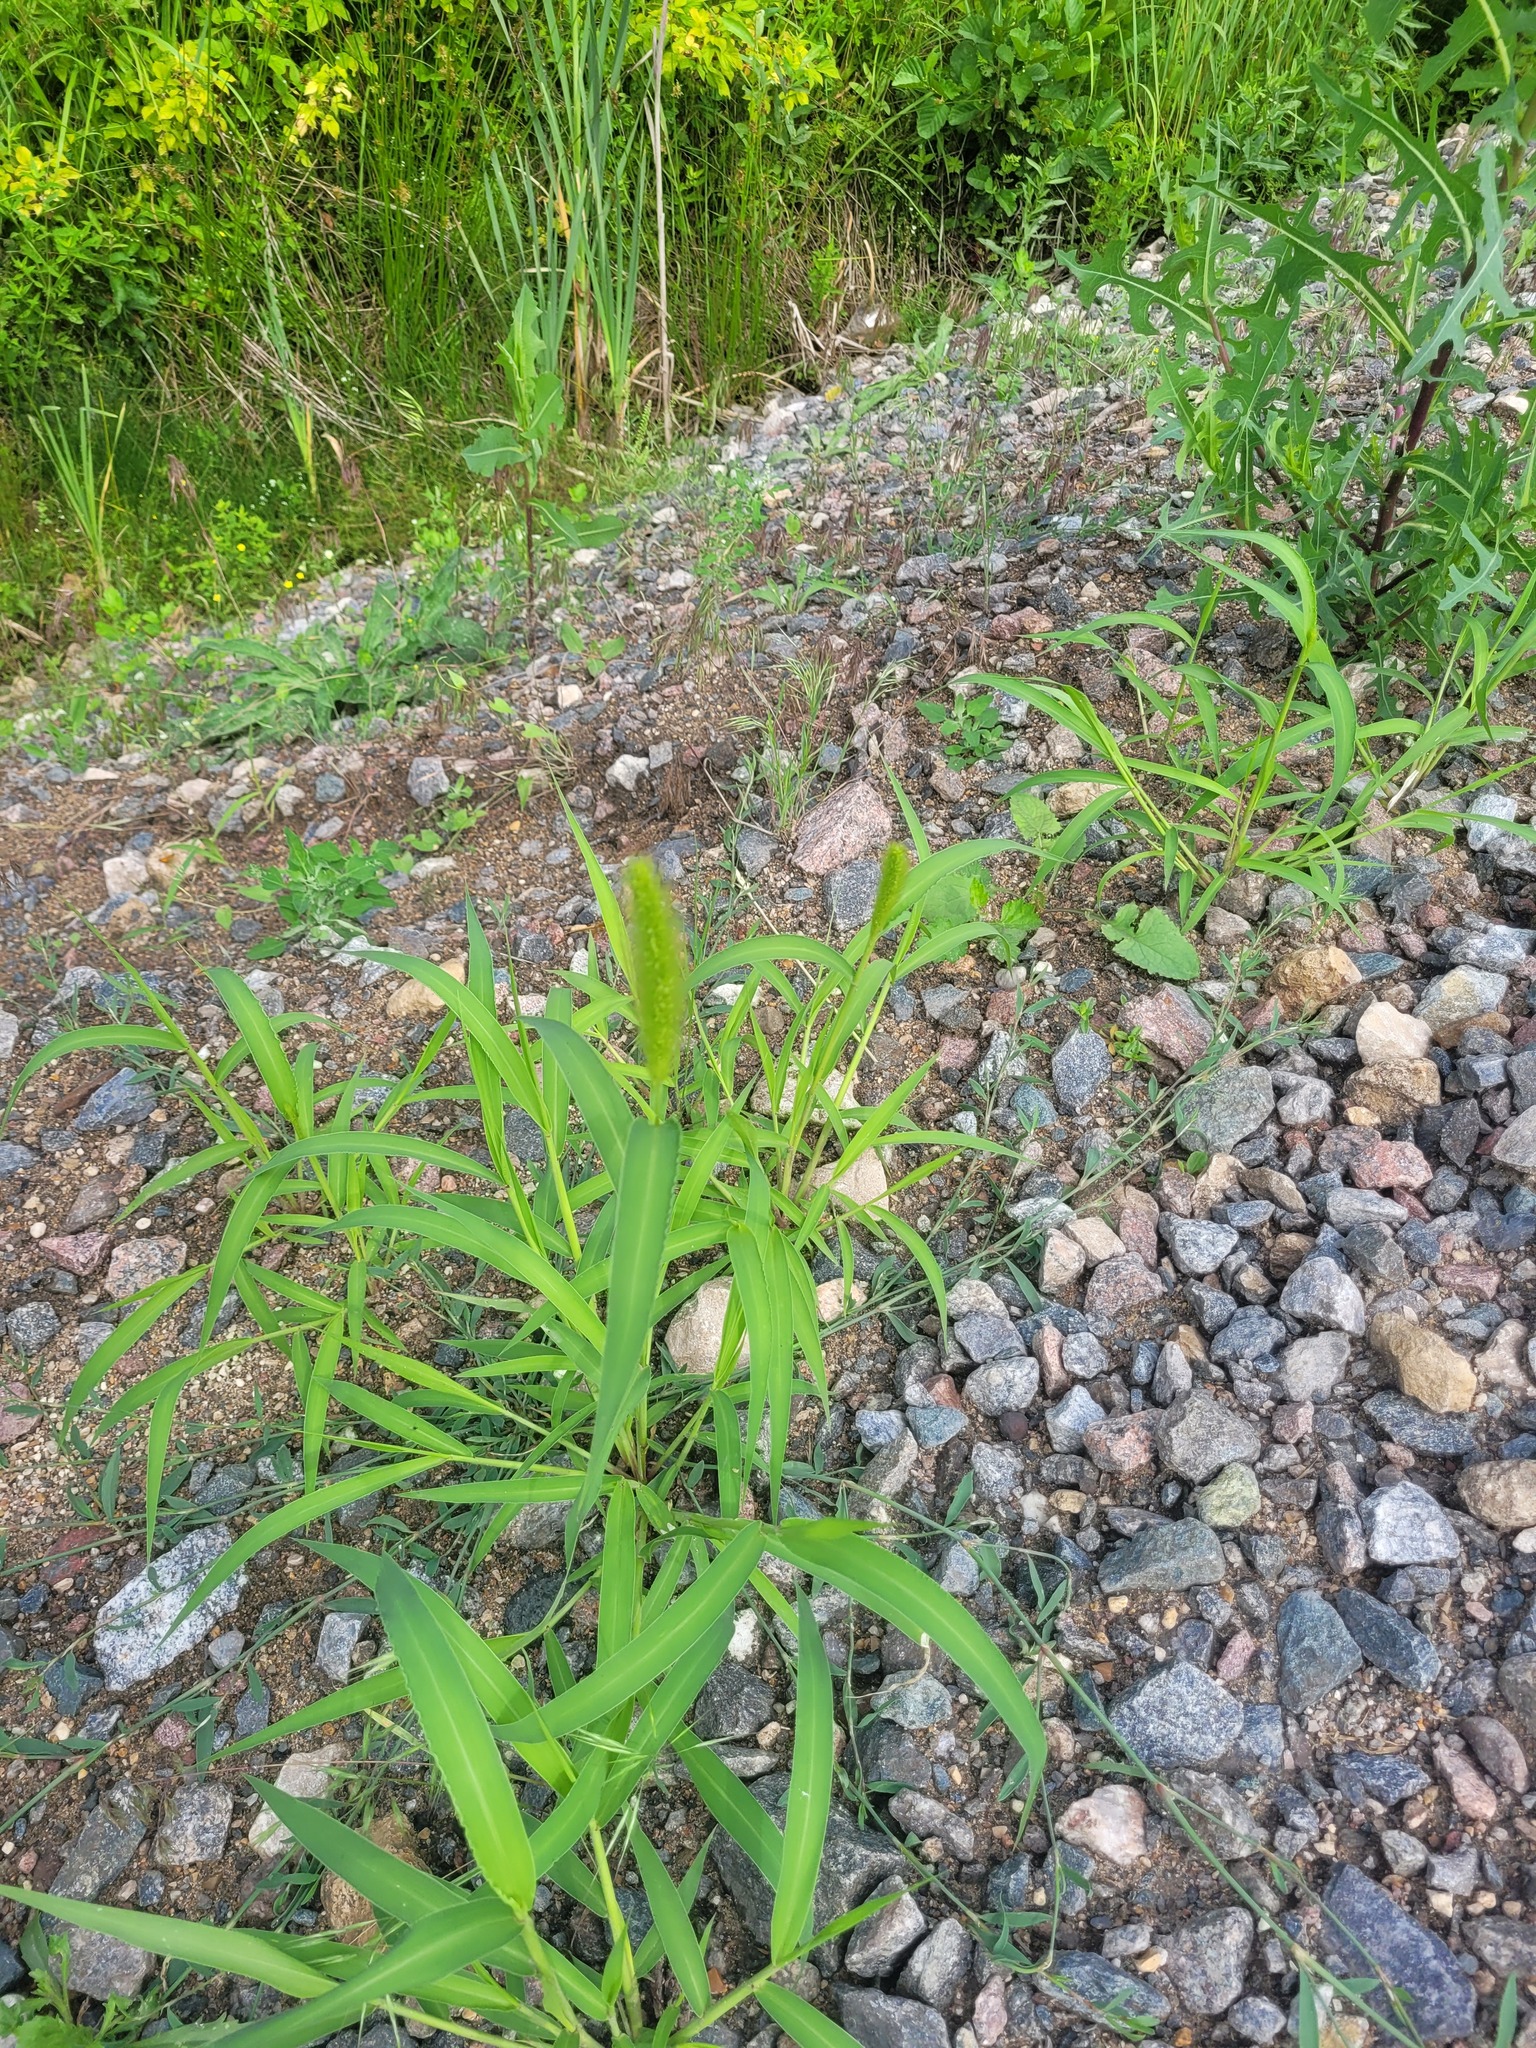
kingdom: Plantae
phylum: Tracheophyta
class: Liliopsida
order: Poales
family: Poaceae
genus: Setaria
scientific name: Setaria viridis
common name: Green bristlegrass
